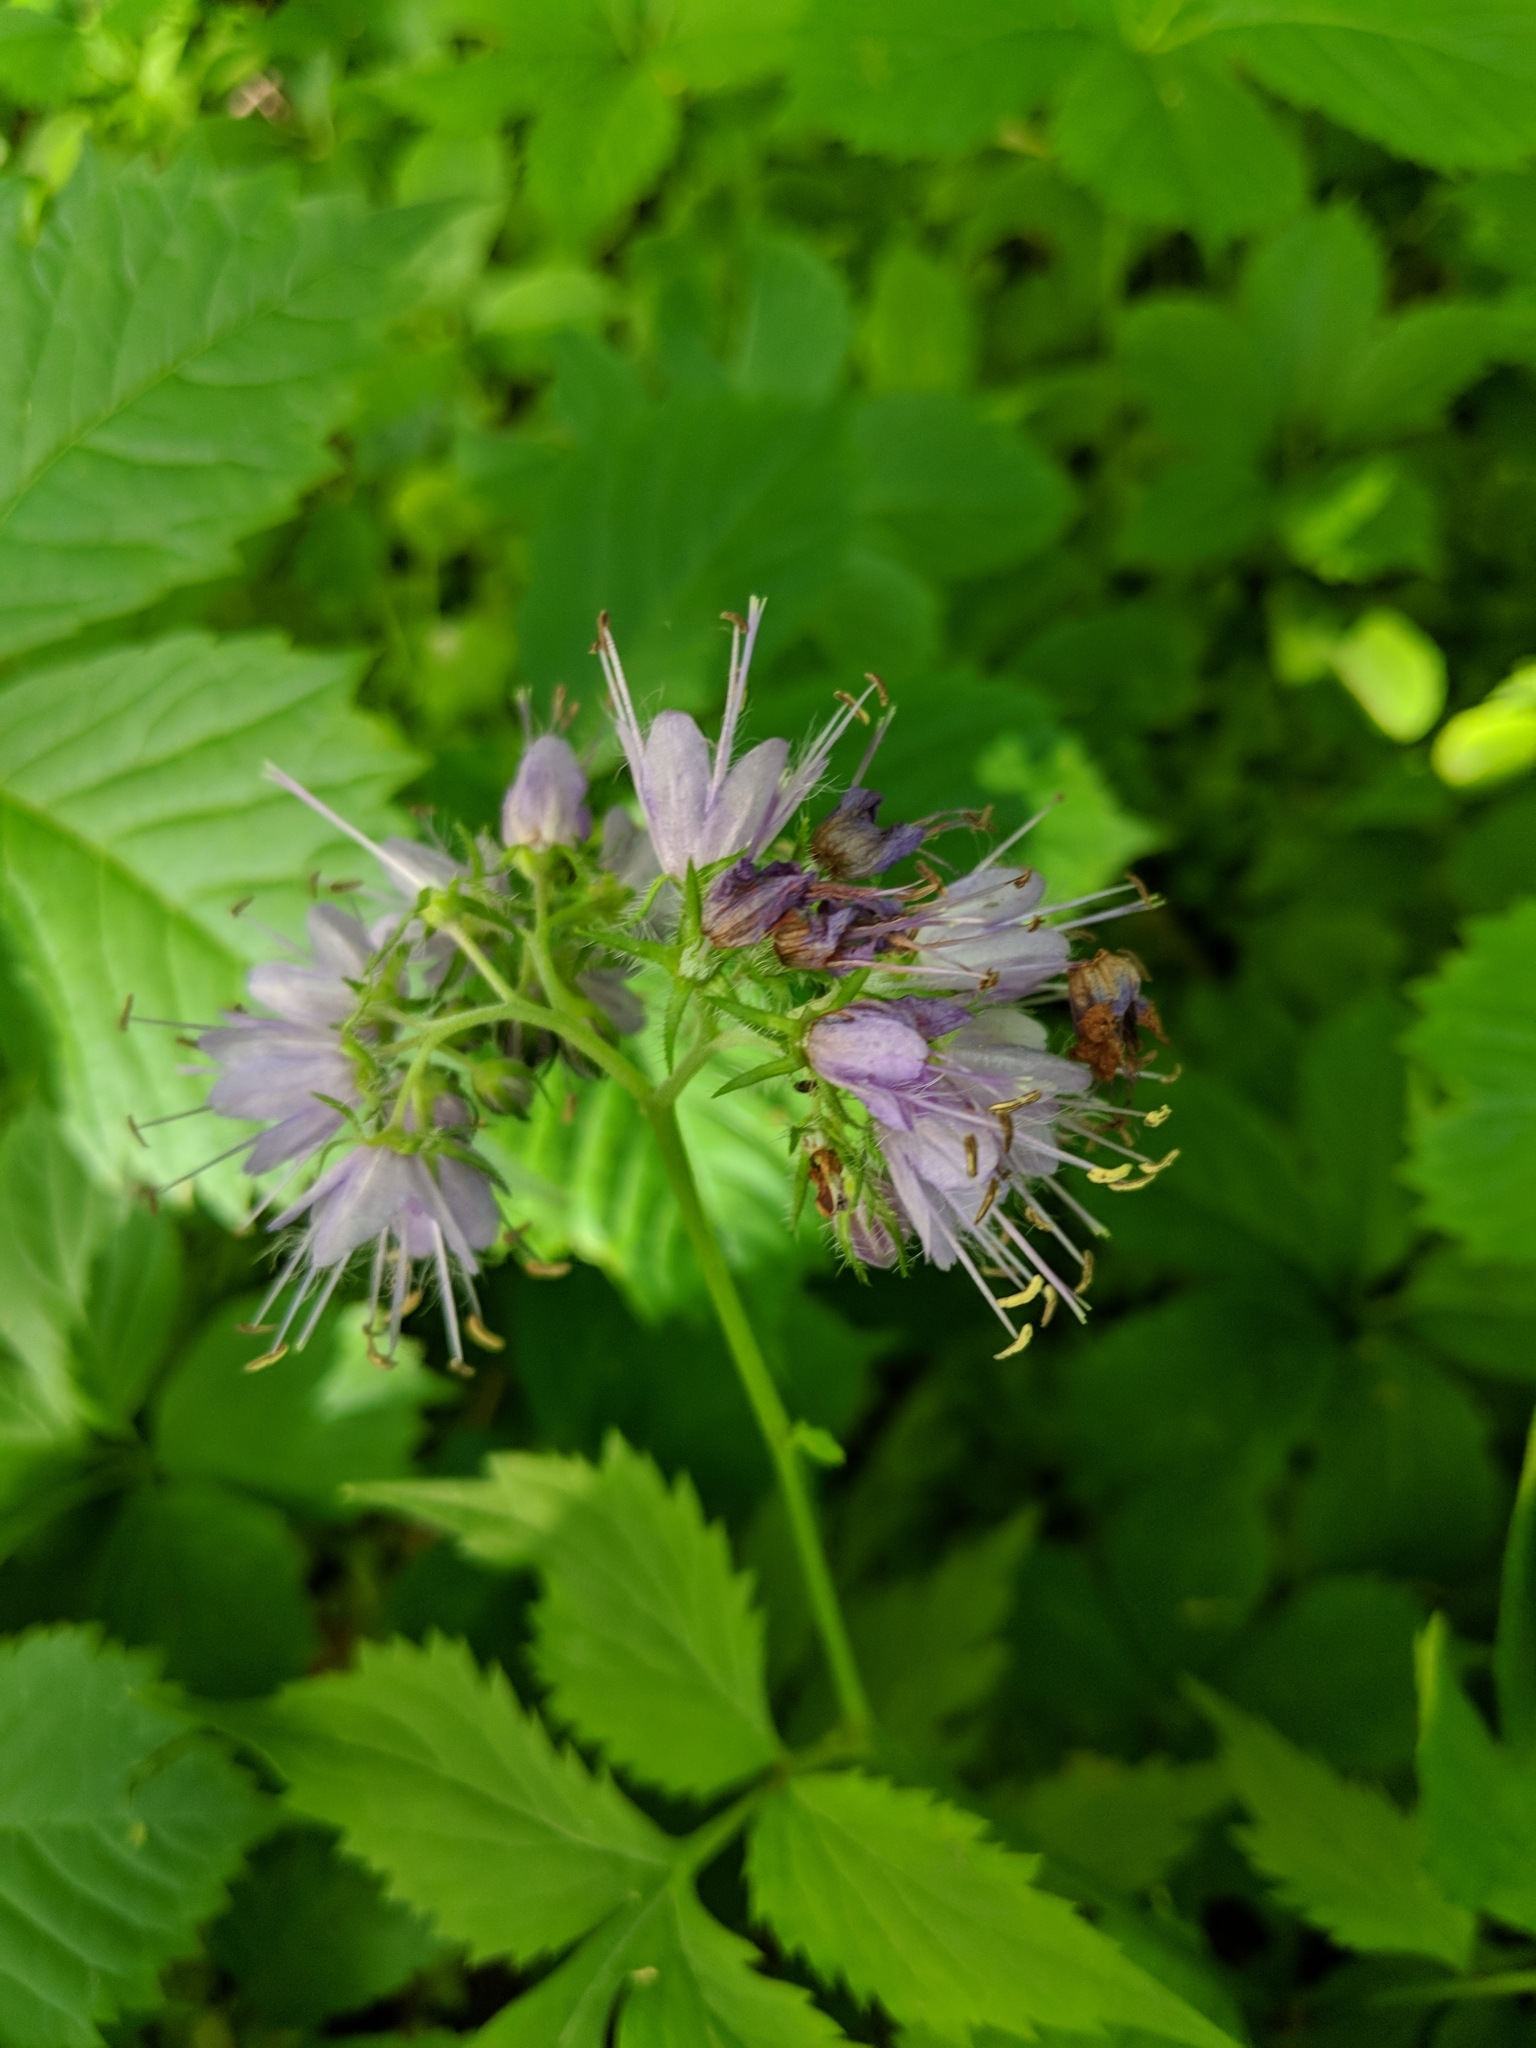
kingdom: Plantae
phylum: Tracheophyta
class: Magnoliopsida
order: Boraginales
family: Hydrophyllaceae
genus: Hydrophyllum
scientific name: Hydrophyllum virginianum
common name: Virginia waterleaf
